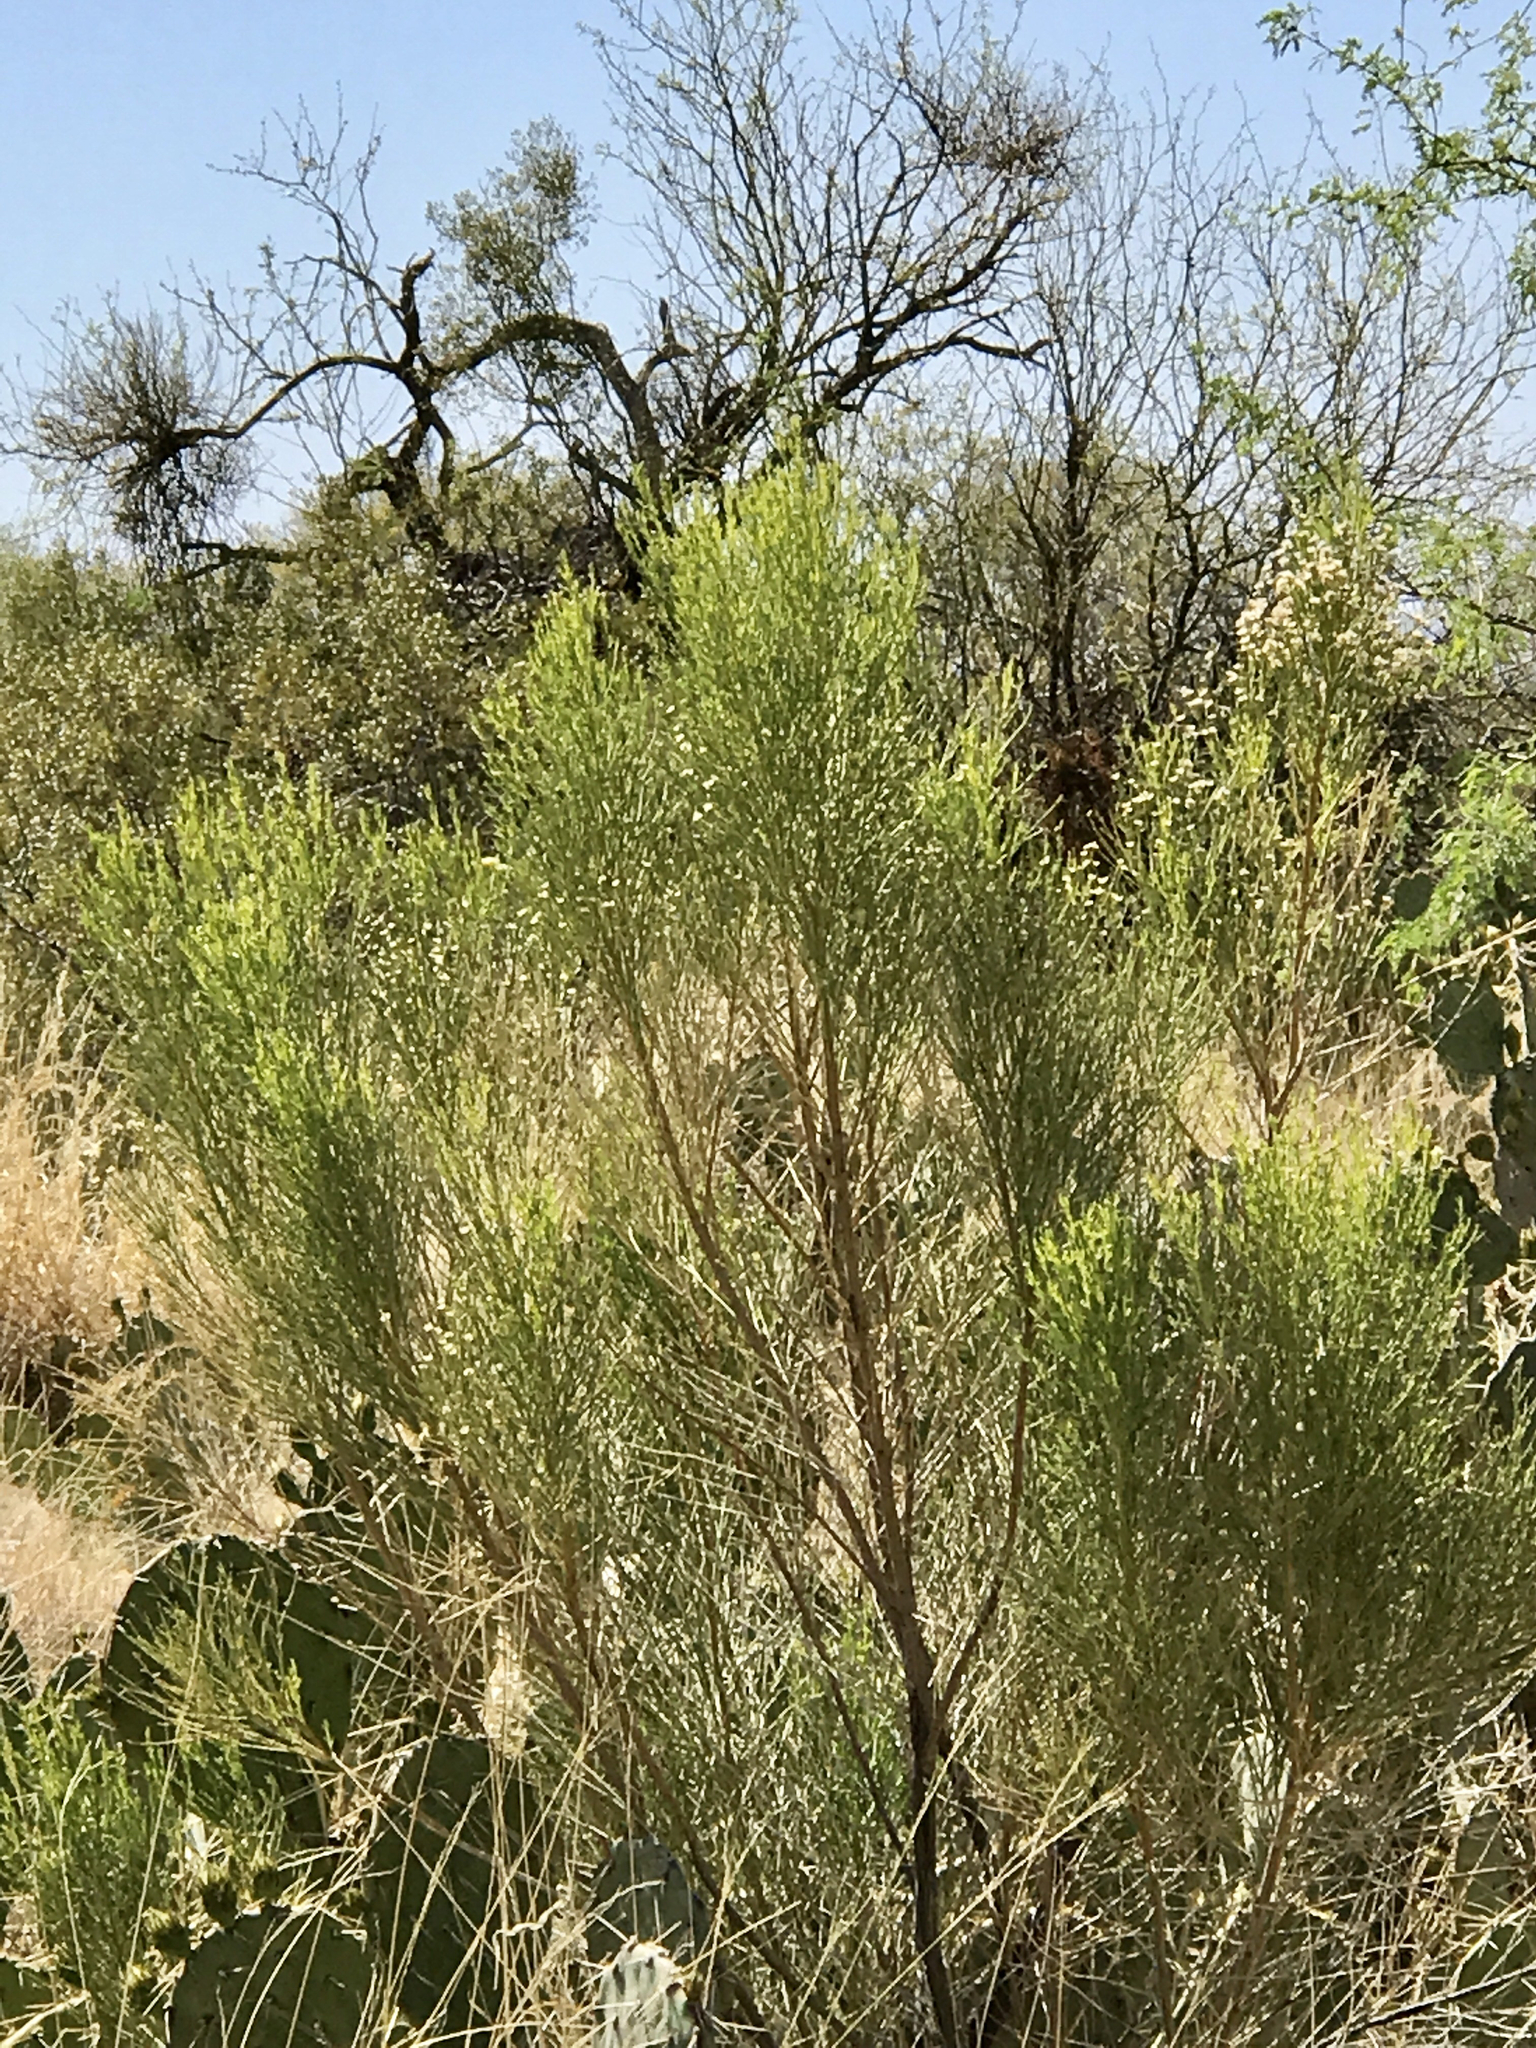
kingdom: Plantae
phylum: Tracheophyta
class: Magnoliopsida
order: Asterales
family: Asteraceae
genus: Baccharis
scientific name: Baccharis sarothroides
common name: Desert-broom
